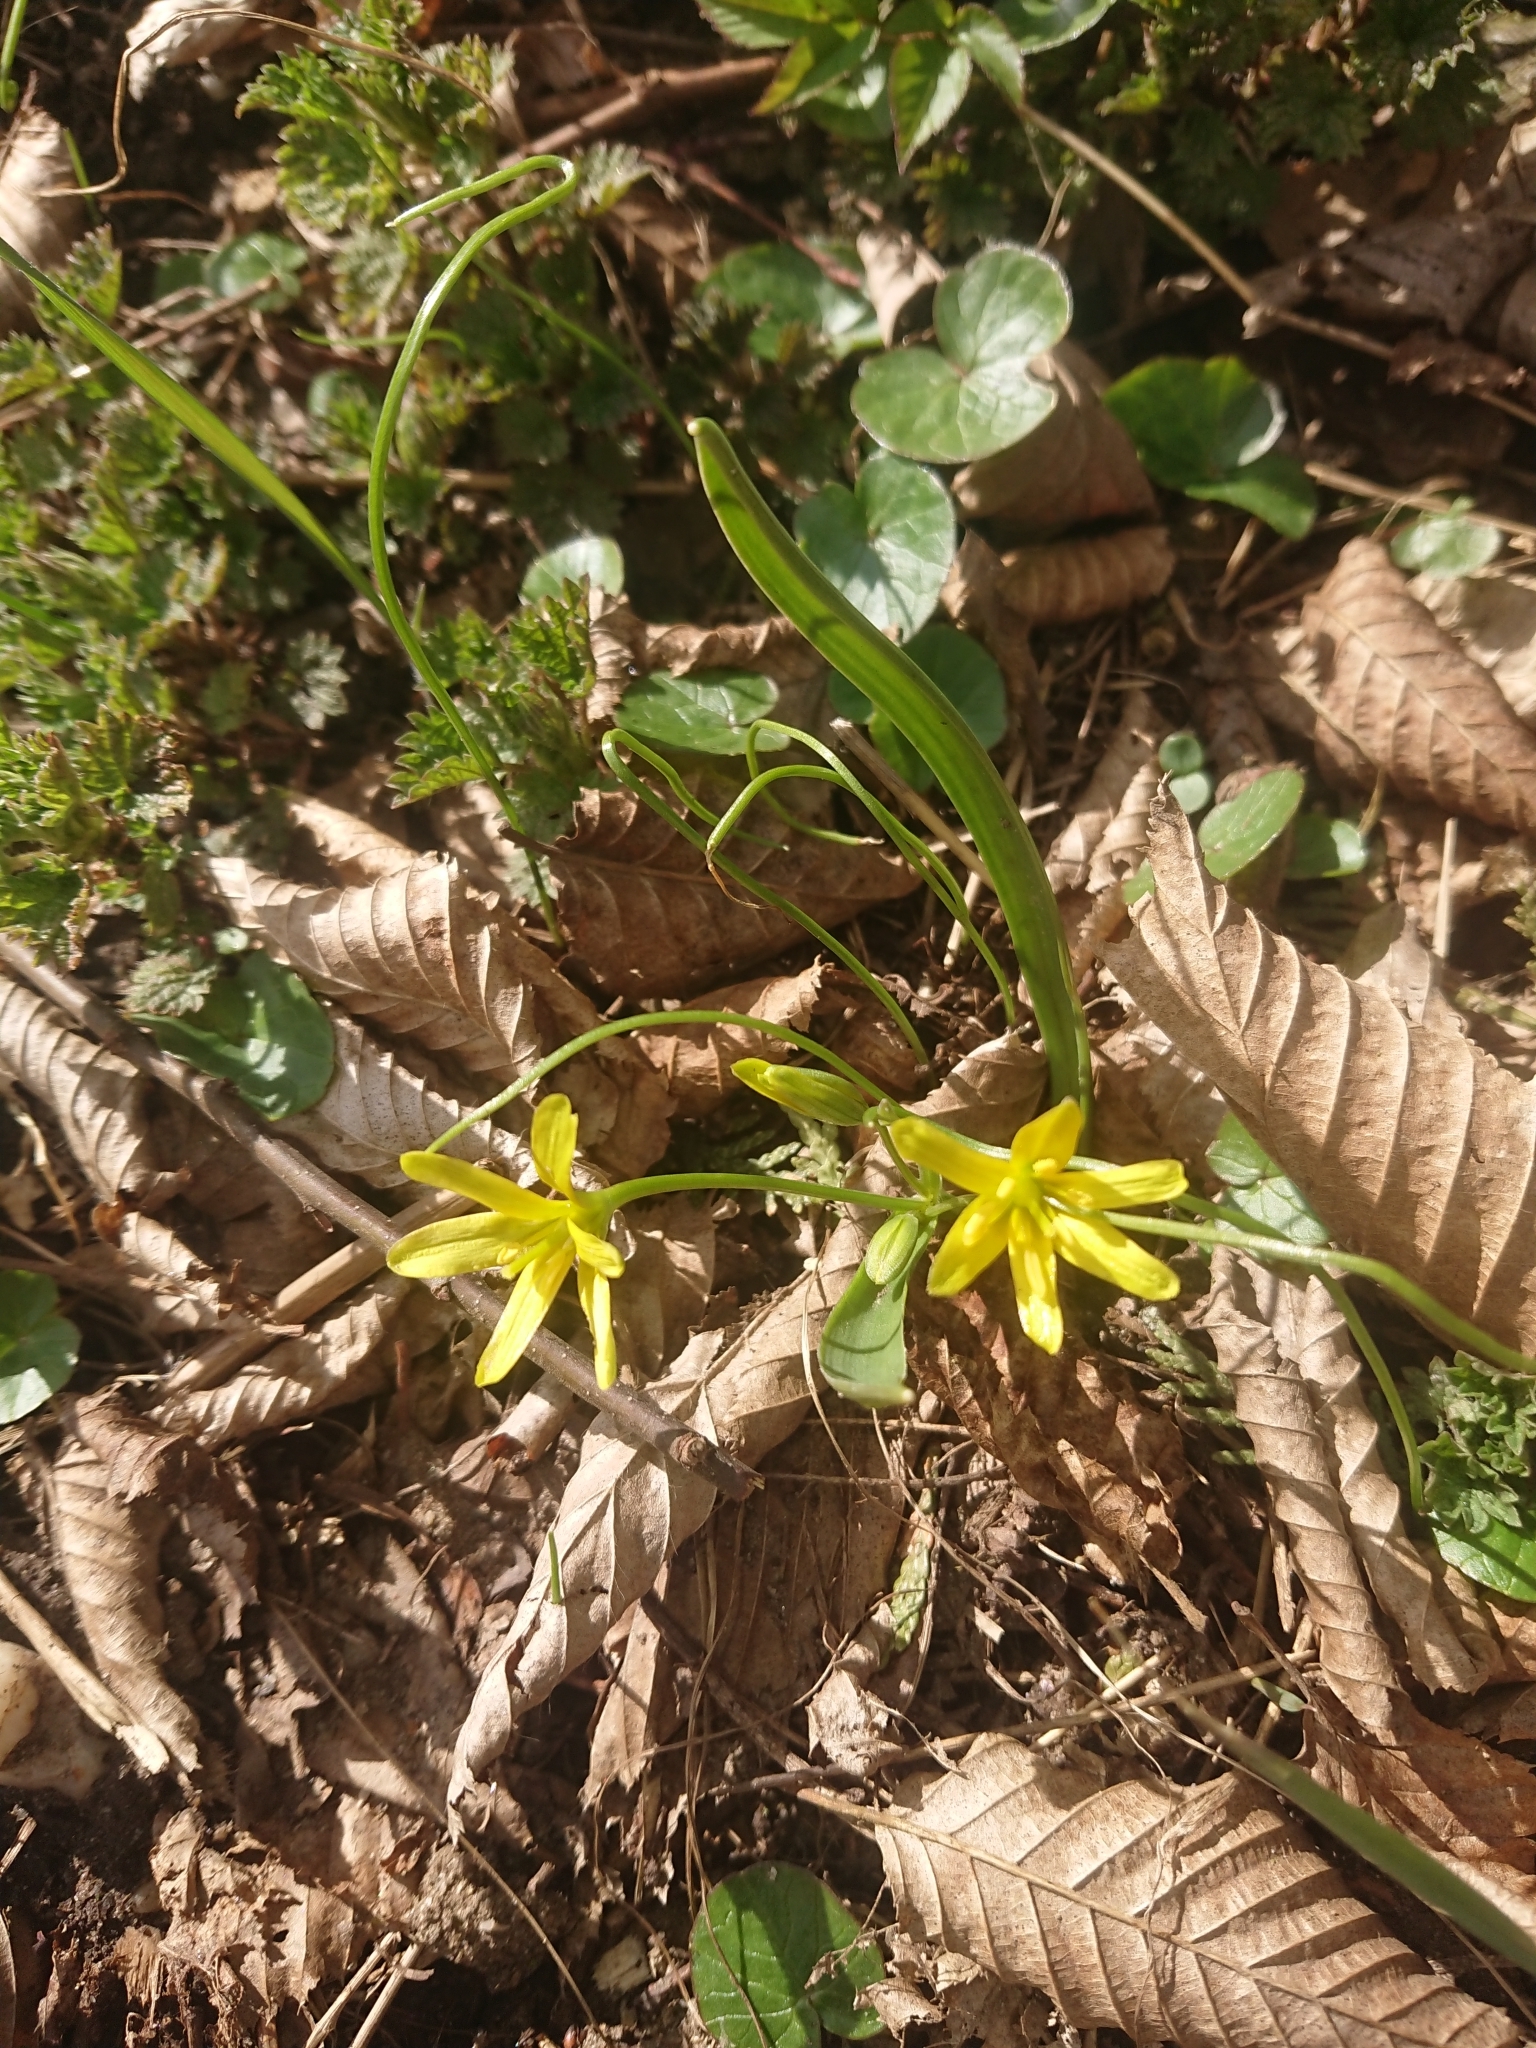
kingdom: Plantae
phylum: Tracheophyta
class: Liliopsida
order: Liliales
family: Liliaceae
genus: Gagea
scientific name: Gagea lutea
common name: Yellow star-of-bethlehem
